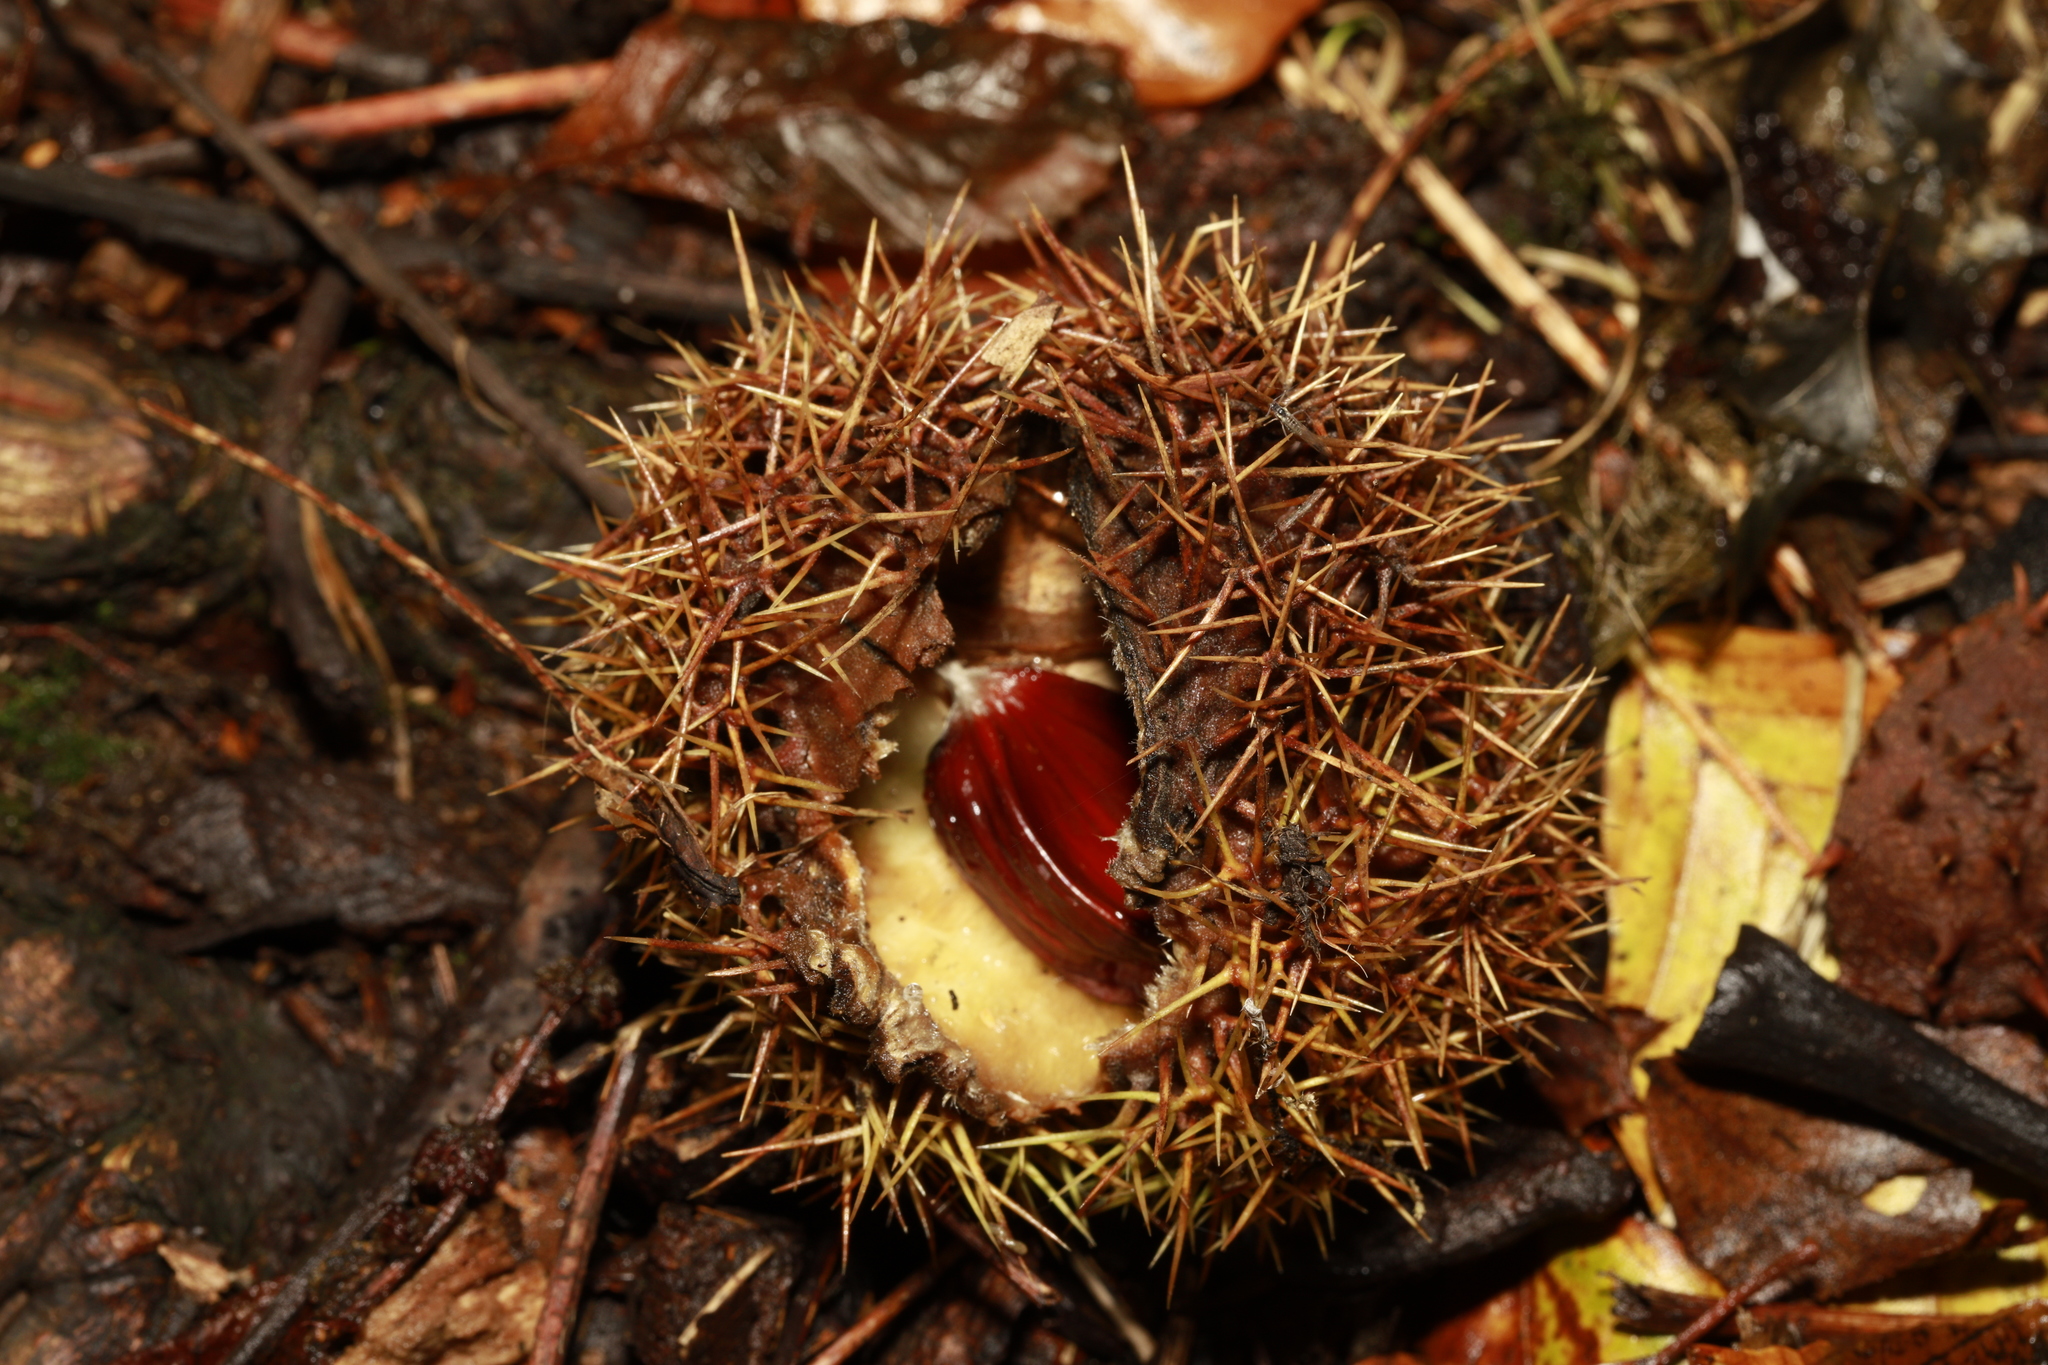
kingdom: Plantae
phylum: Tracheophyta
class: Magnoliopsida
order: Fagales
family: Fagaceae
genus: Castanea
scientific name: Castanea sativa
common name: Sweet chestnut
